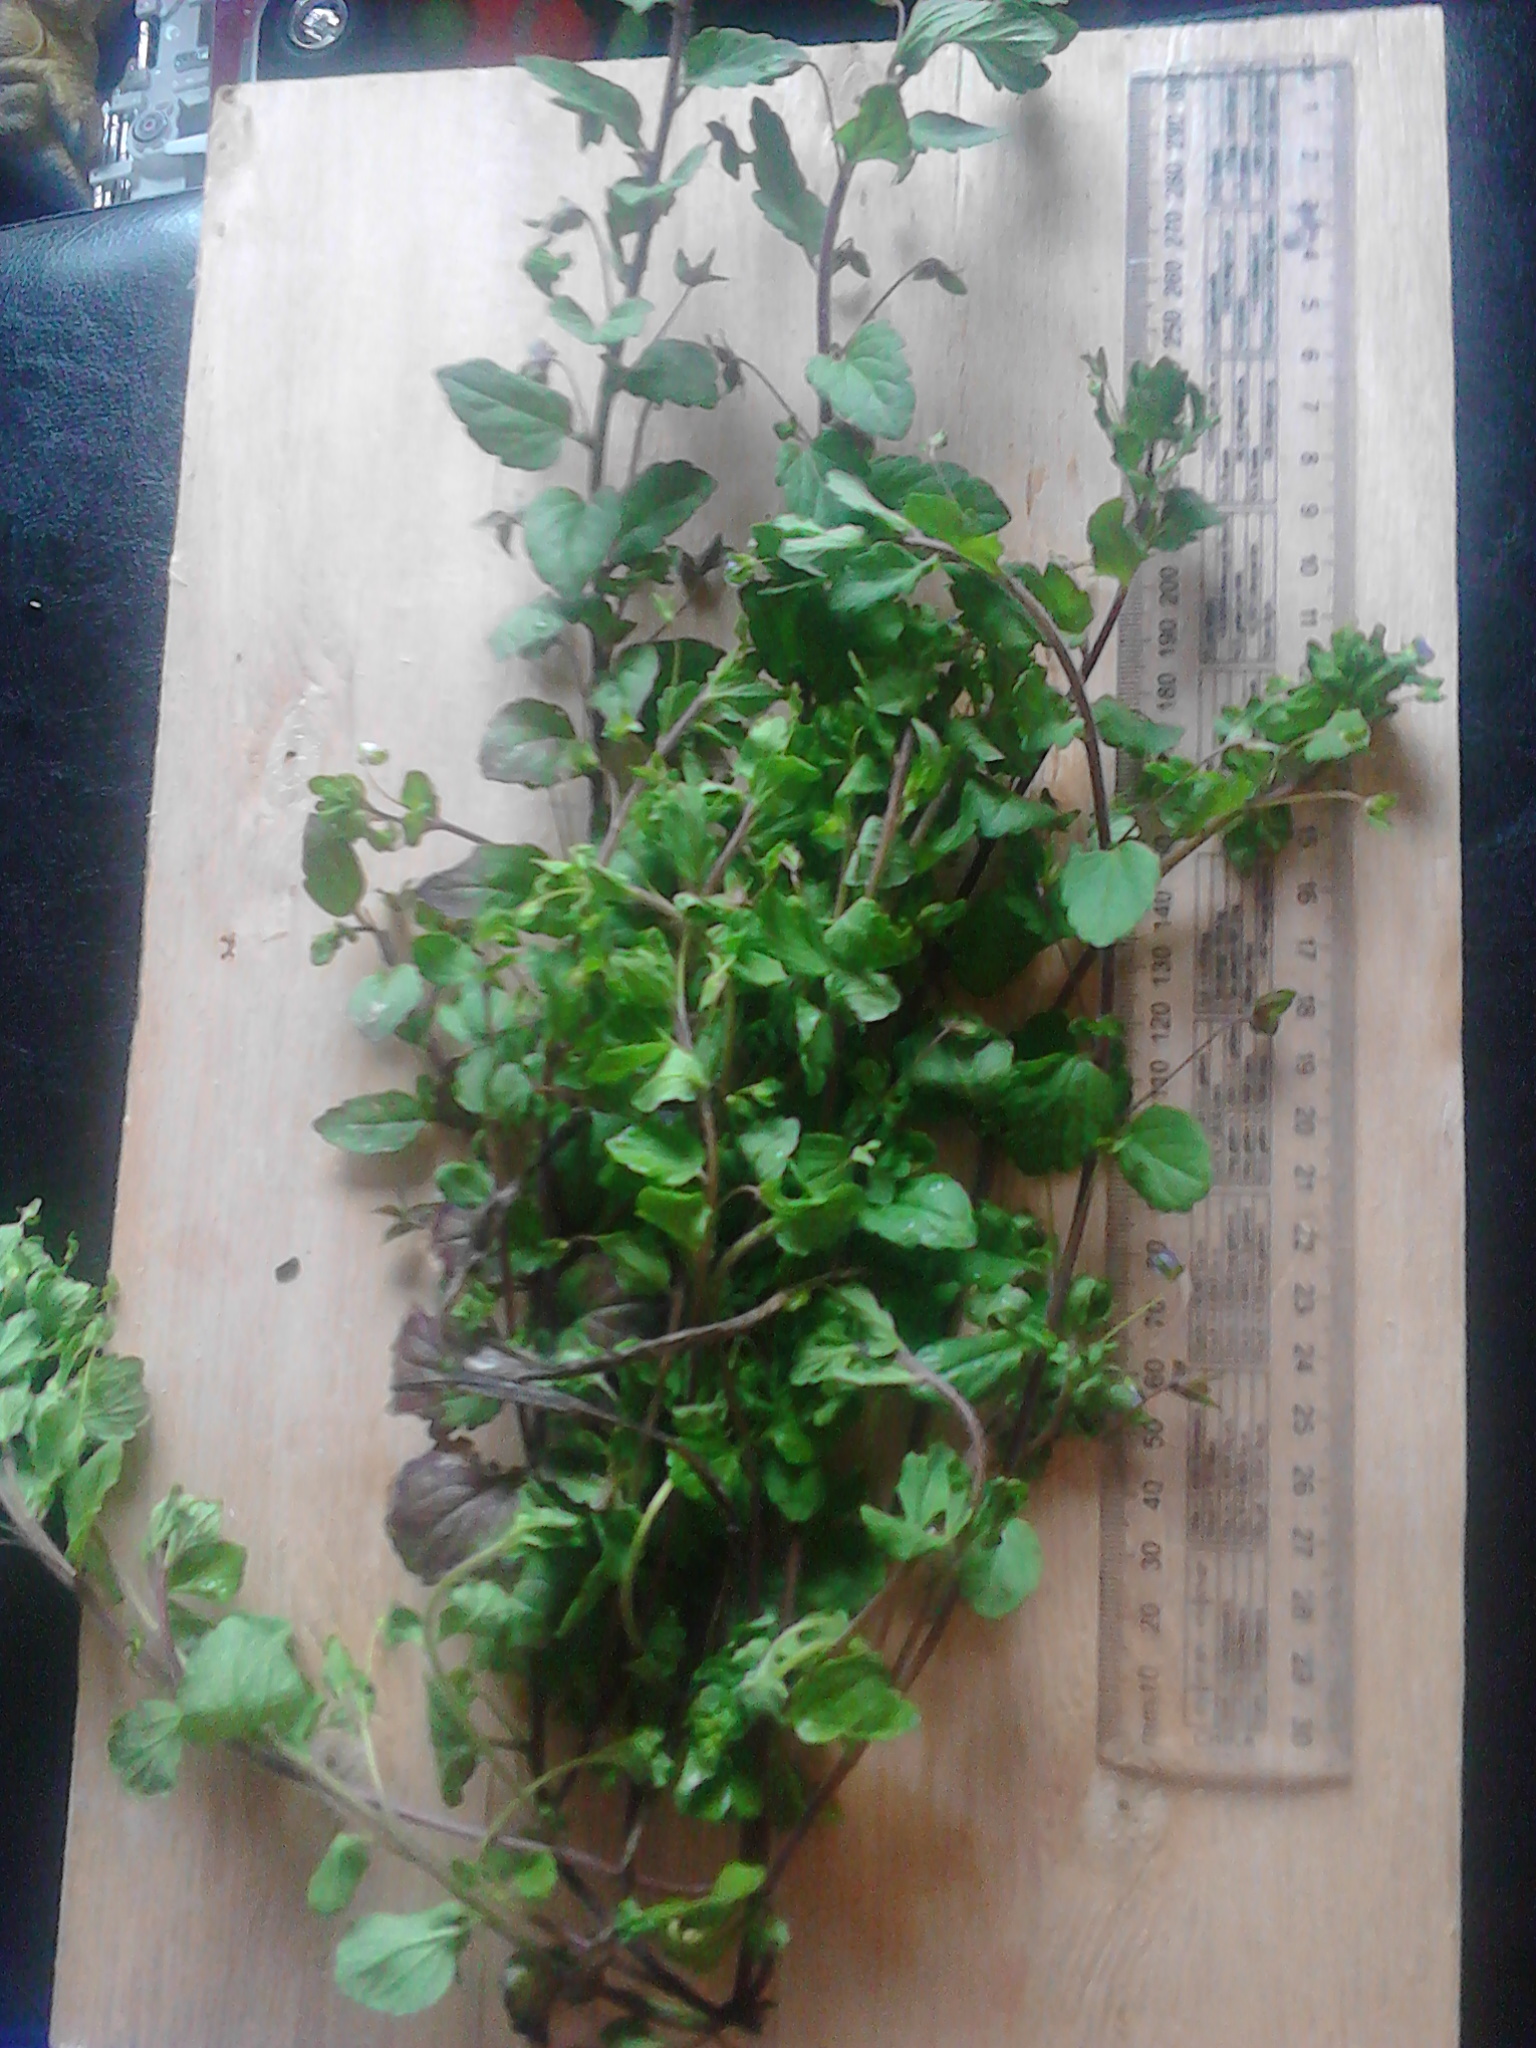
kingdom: Plantae
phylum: Tracheophyta
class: Magnoliopsida
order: Lamiales
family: Plantaginaceae
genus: Veronica
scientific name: Veronica persica
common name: Common field-speedwell
